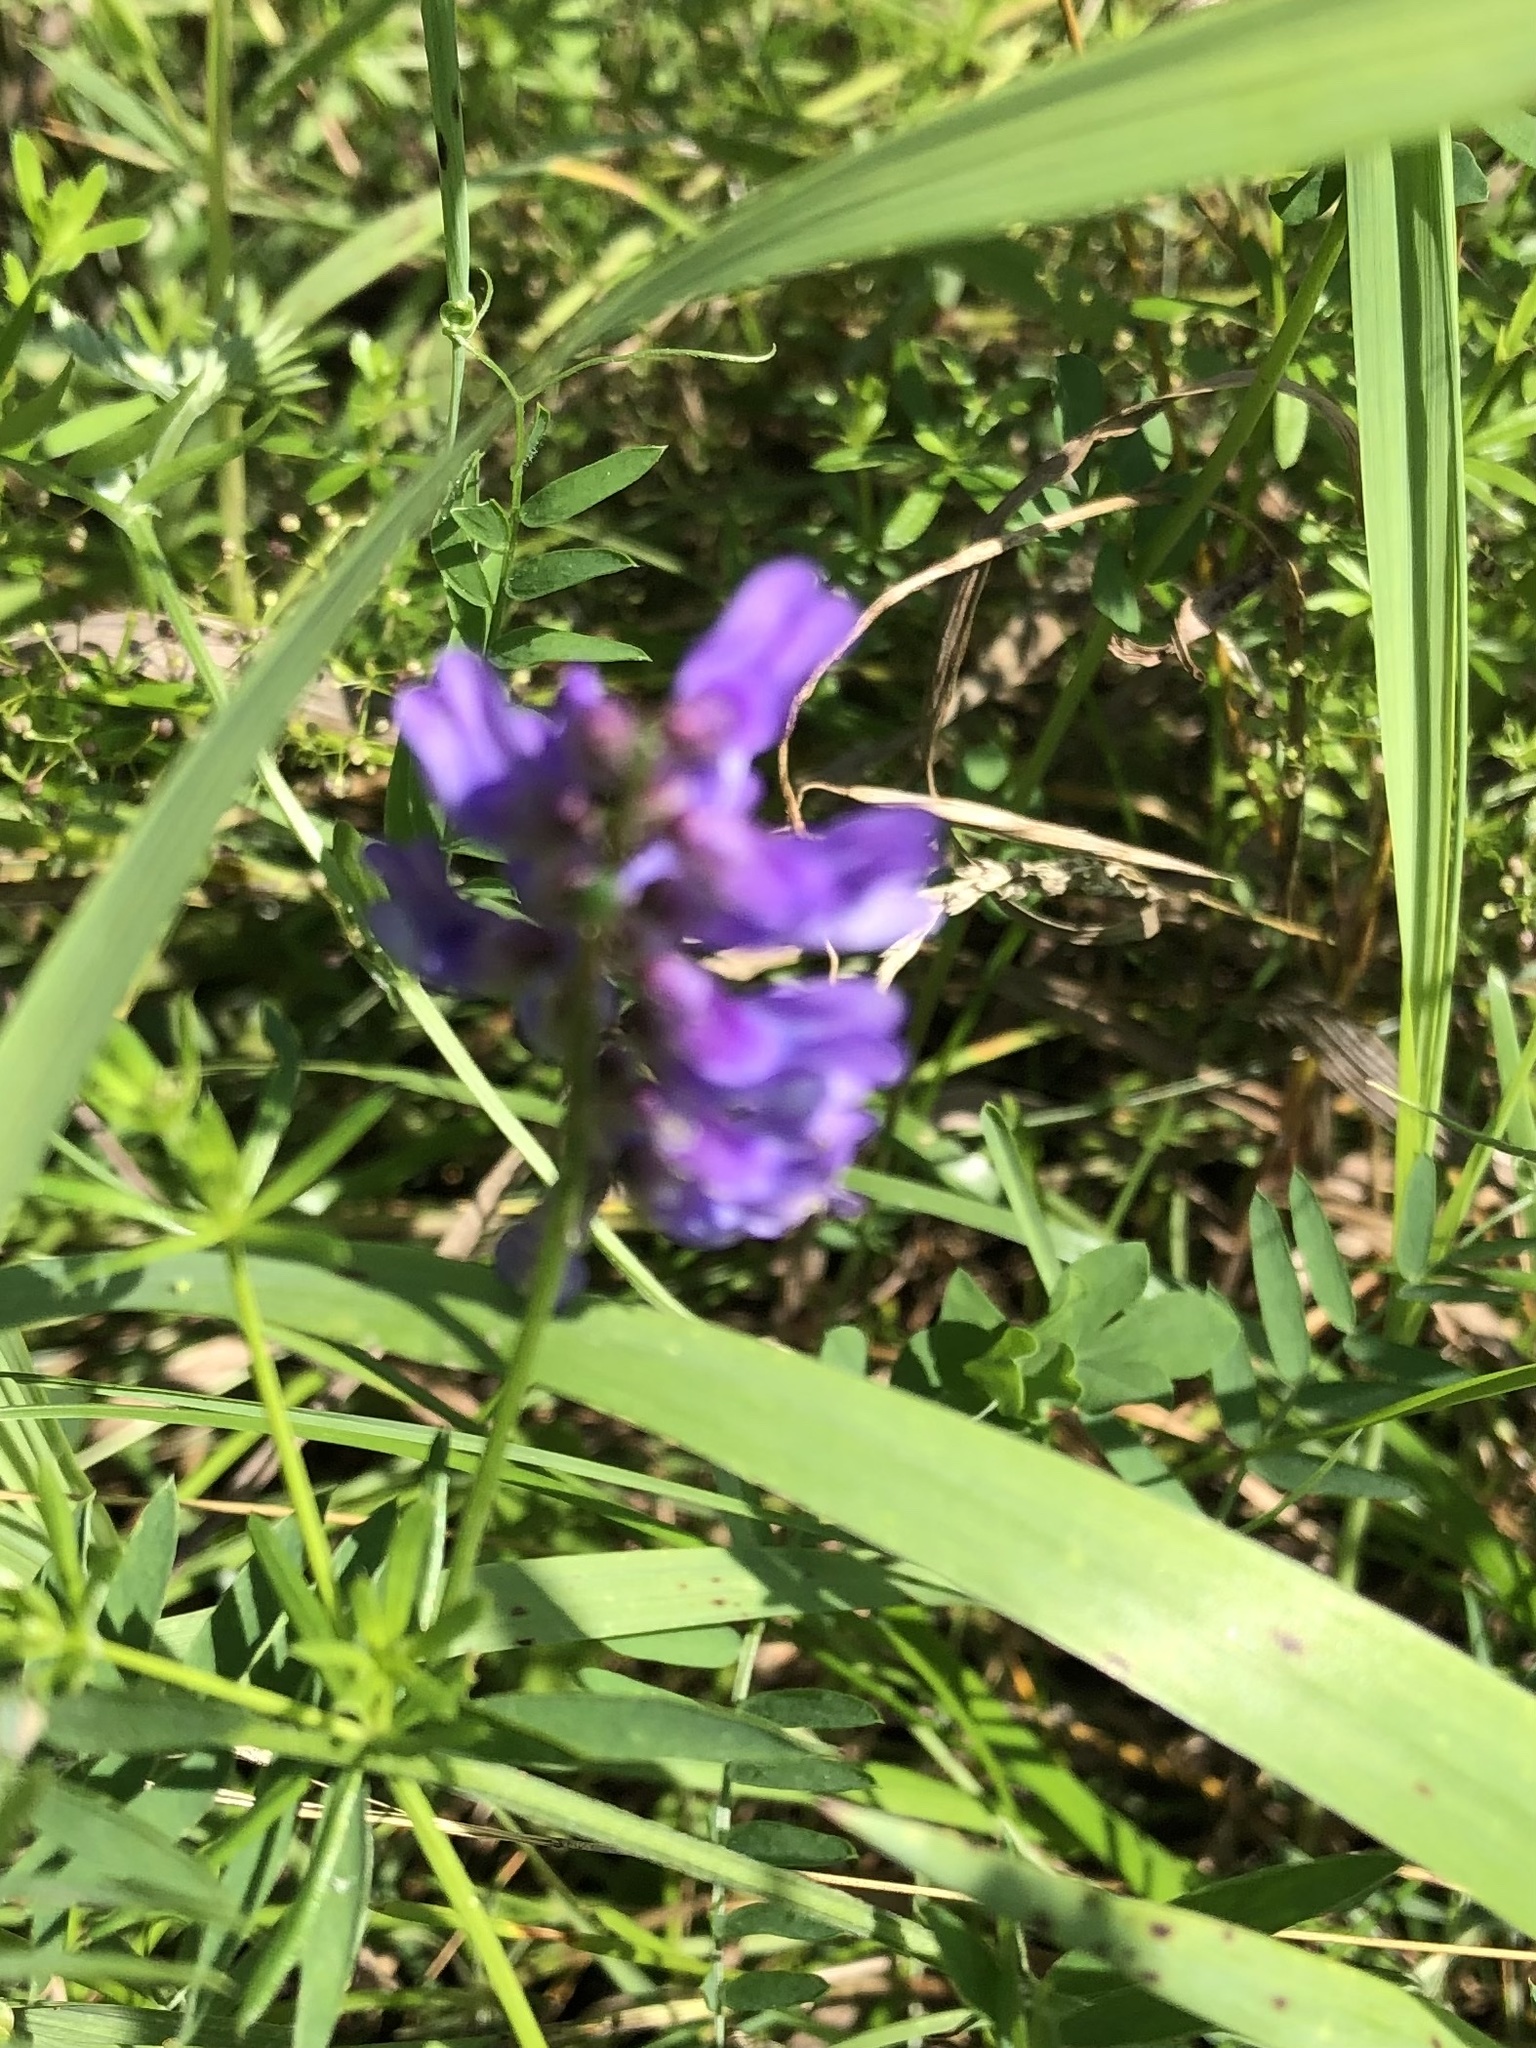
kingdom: Plantae
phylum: Tracheophyta
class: Magnoliopsida
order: Fabales
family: Fabaceae
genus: Vicia
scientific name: Vicia cracca
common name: Bird vetch
